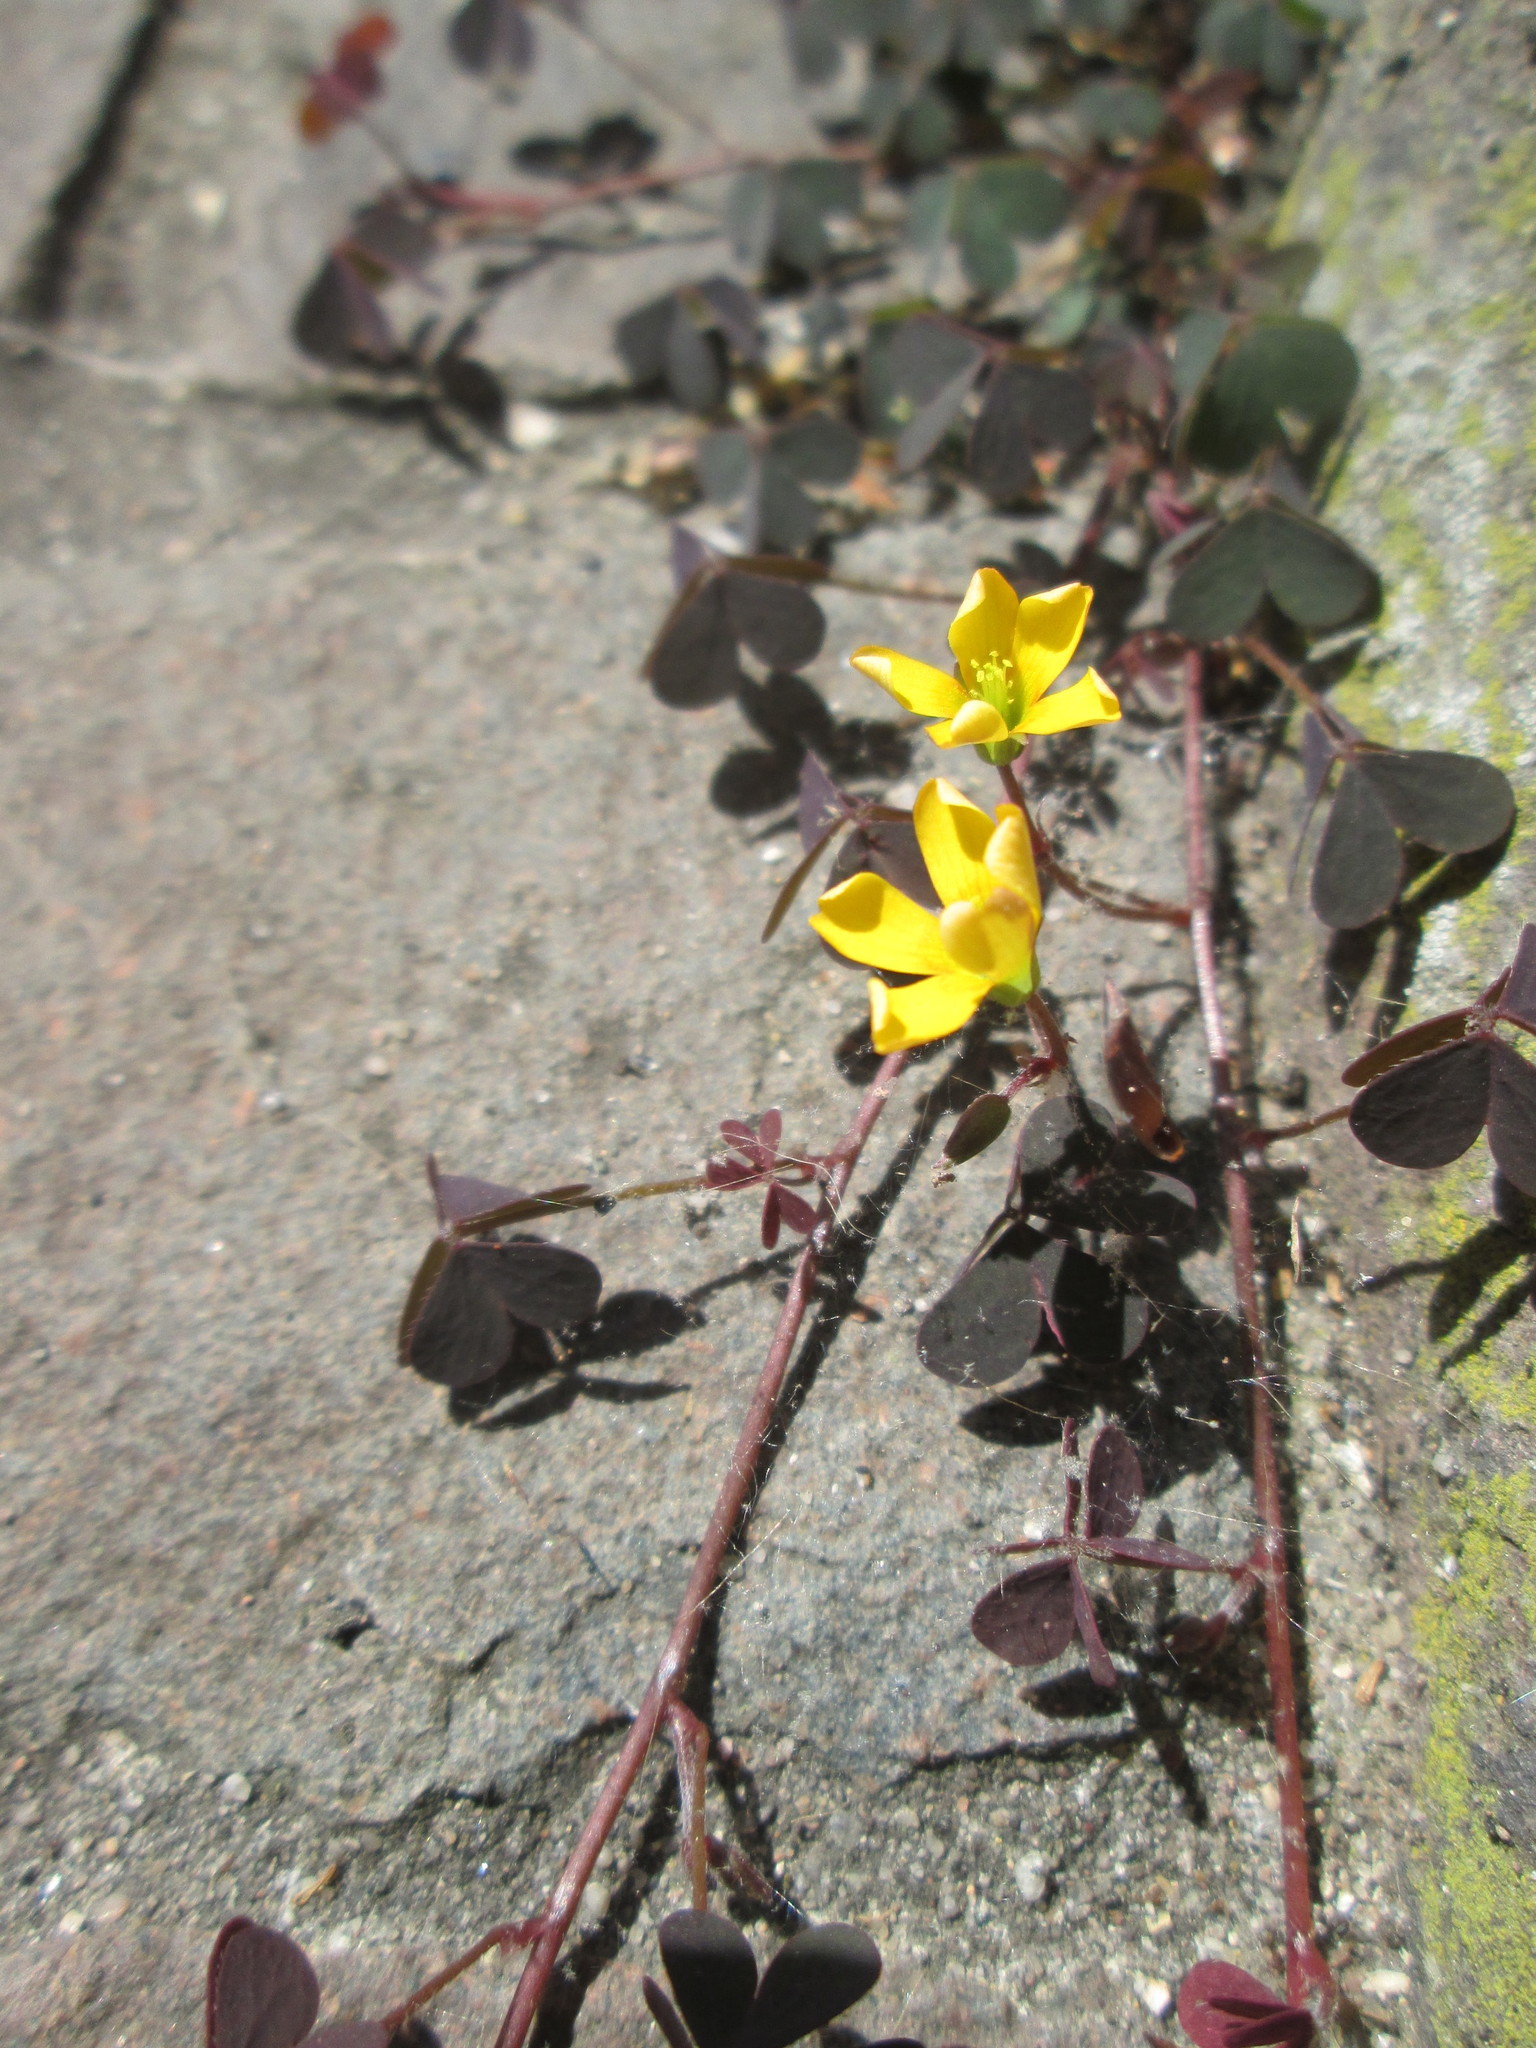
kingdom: Plantae
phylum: Tracheophyta
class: Magnoliopsida
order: Oxalidales
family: Oxalidaceae
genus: Oxalis
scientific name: Oxalis corniculata
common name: Procumbent yellow-sorrel
